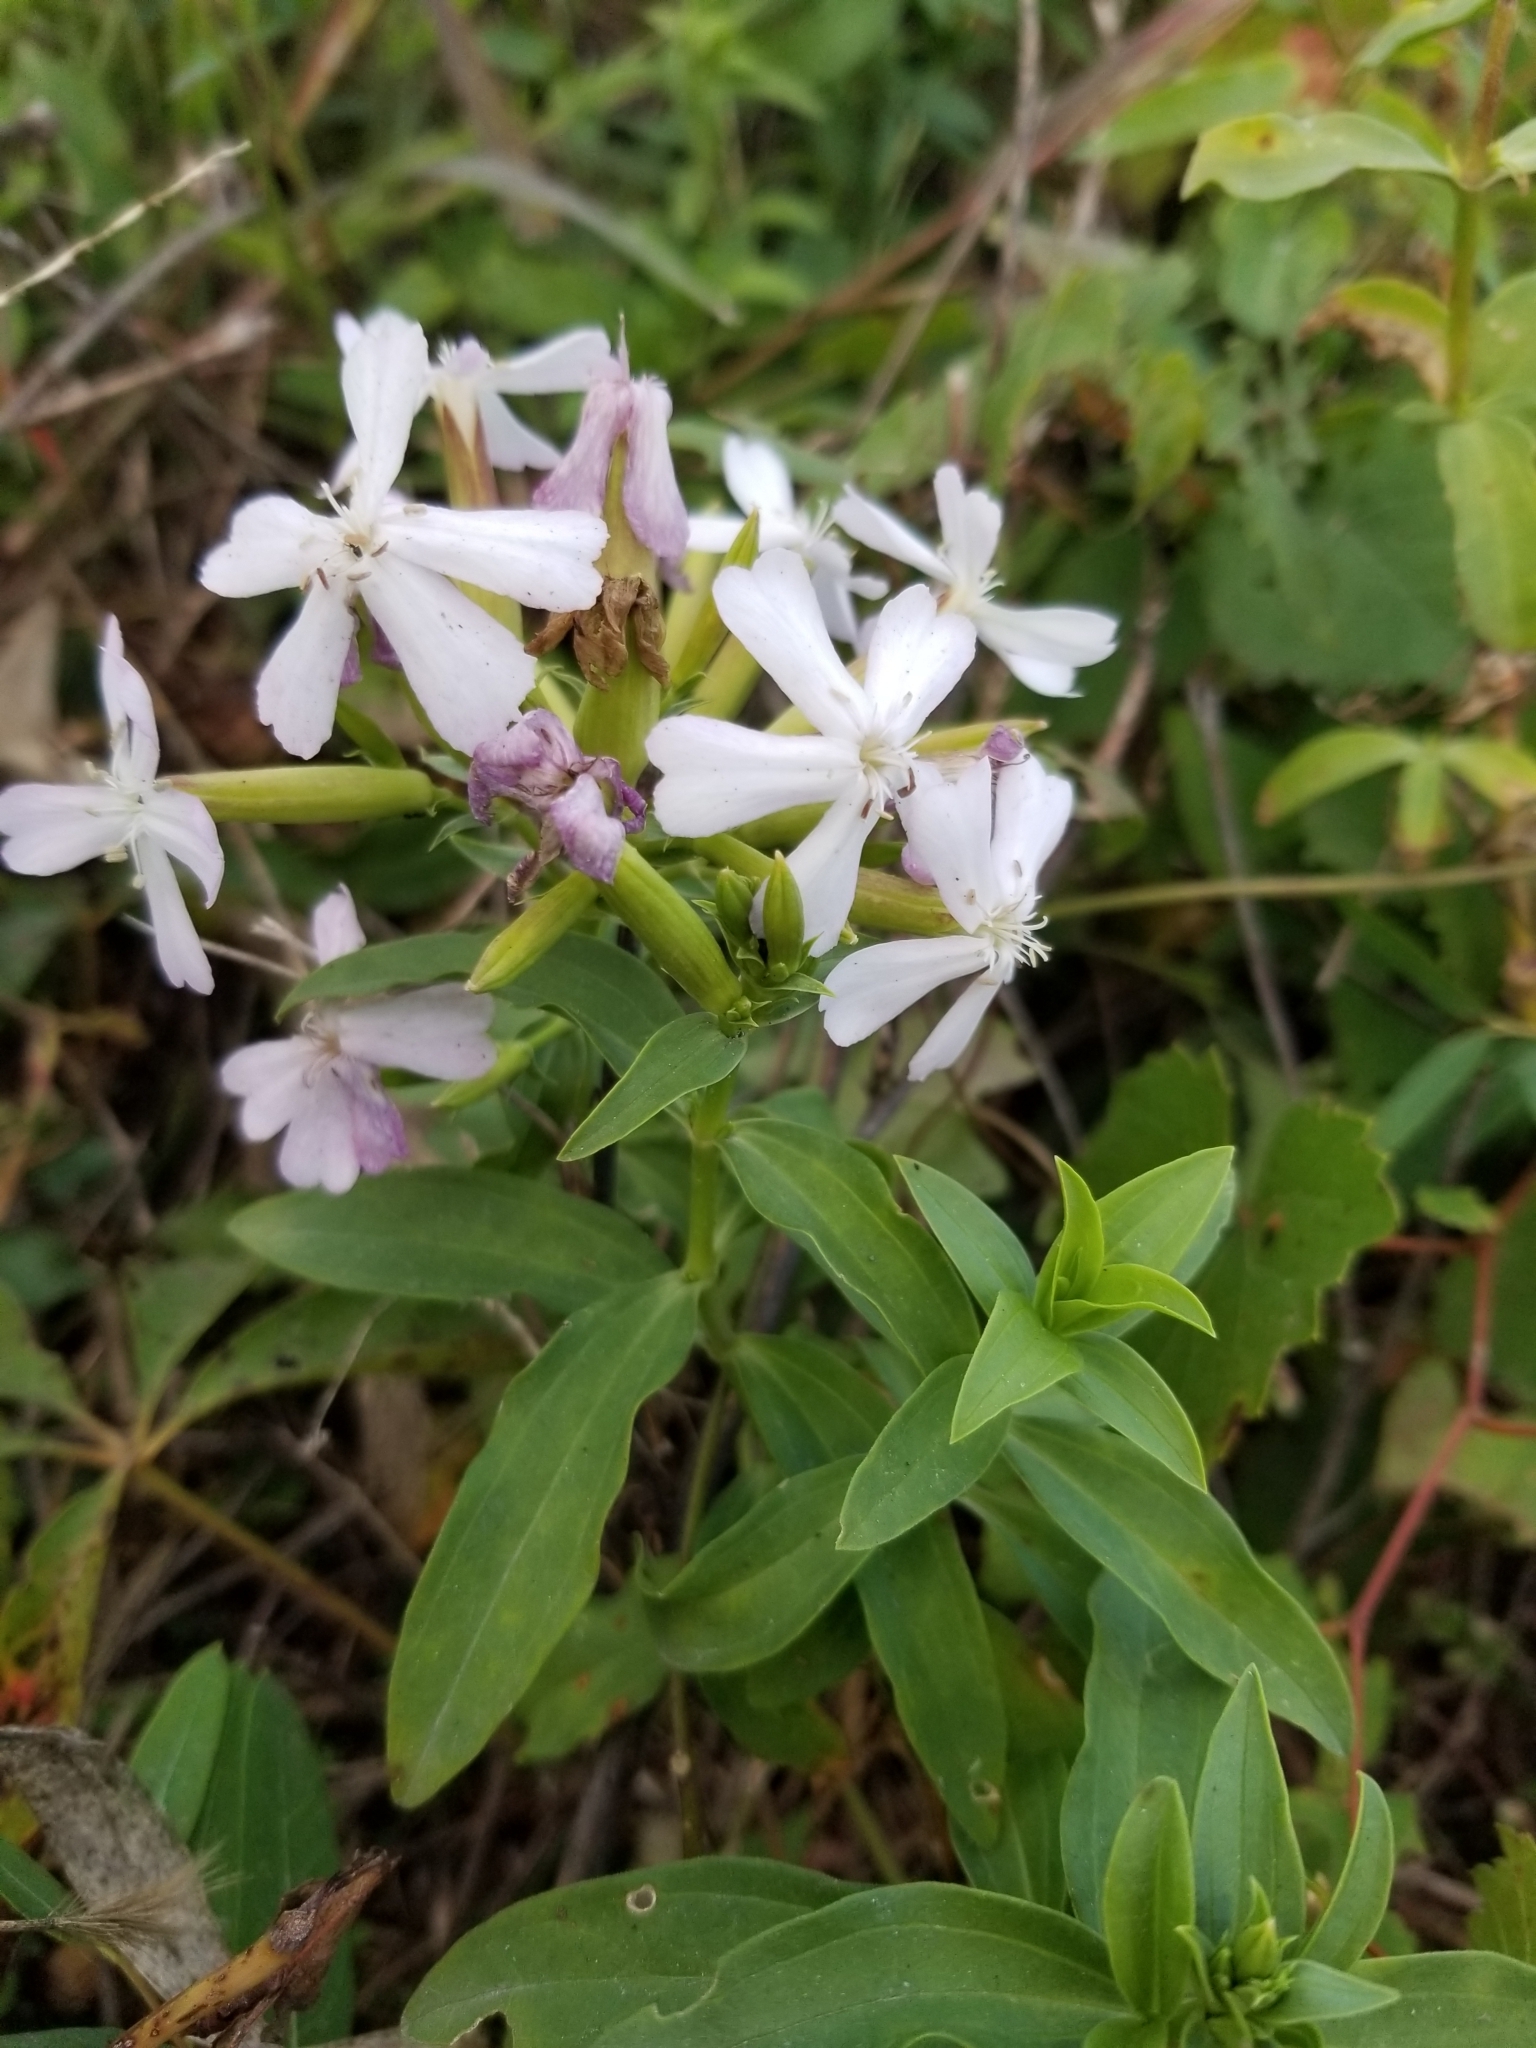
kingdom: Plantae
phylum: Tracheophyta
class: Magnoliopsida
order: Caryophyllales
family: Caryophyllaceae
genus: Saponaria
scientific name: Saponaria officinalis
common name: Soapwort
